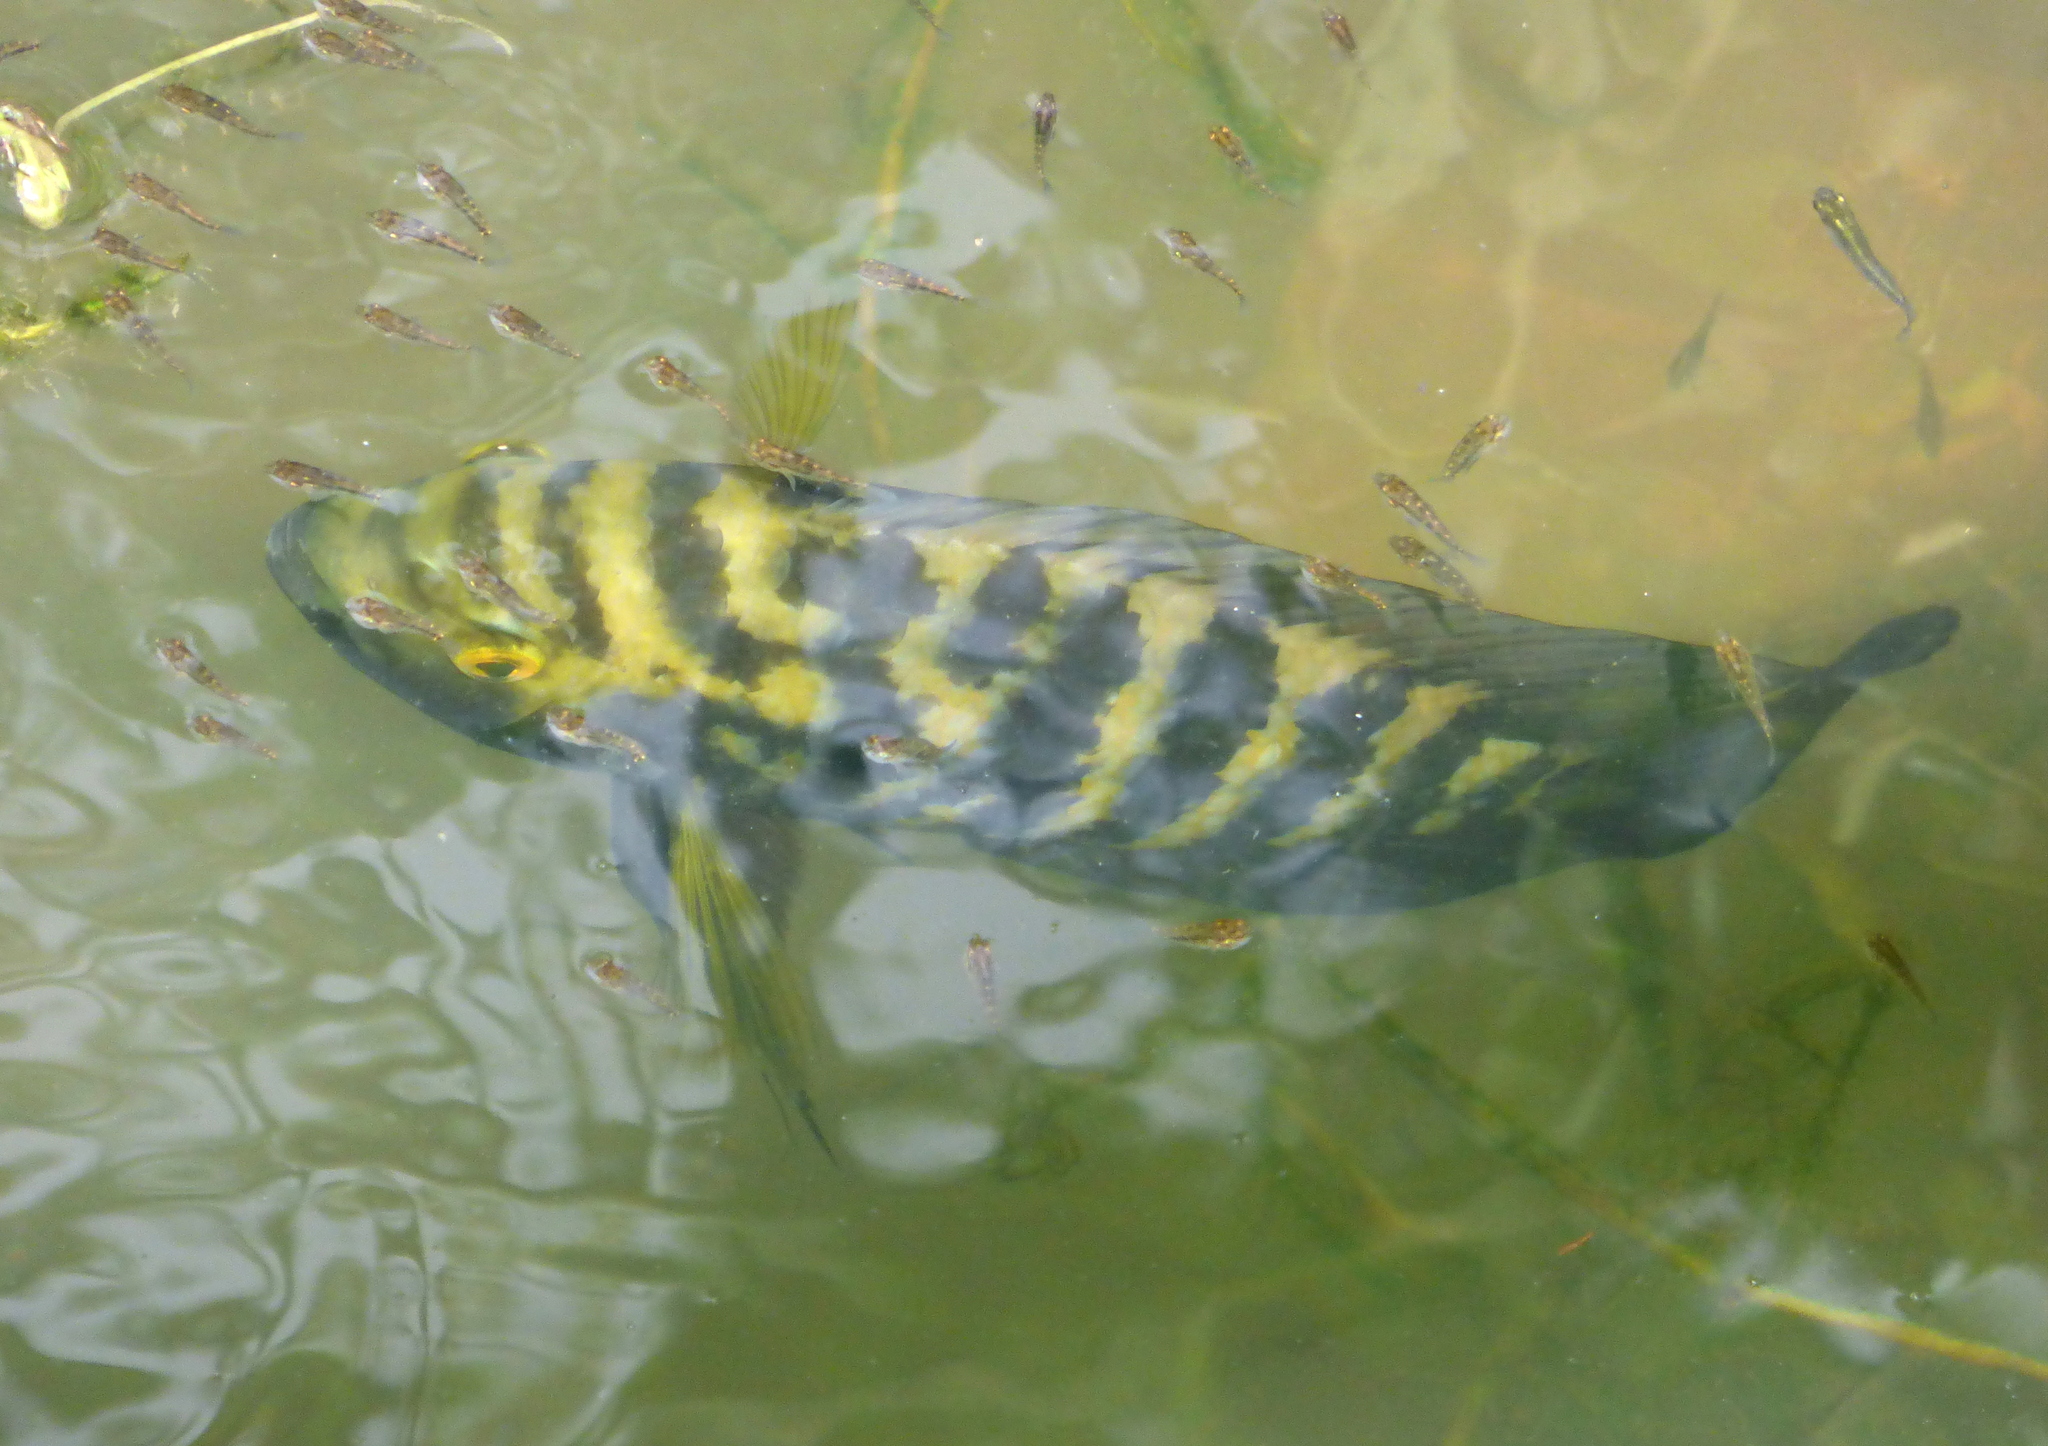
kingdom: Animalia
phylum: Chordata
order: Perciformes
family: Cichlidae
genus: Australoheros
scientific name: Australoheros facetus
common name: Chameleon cichlid
